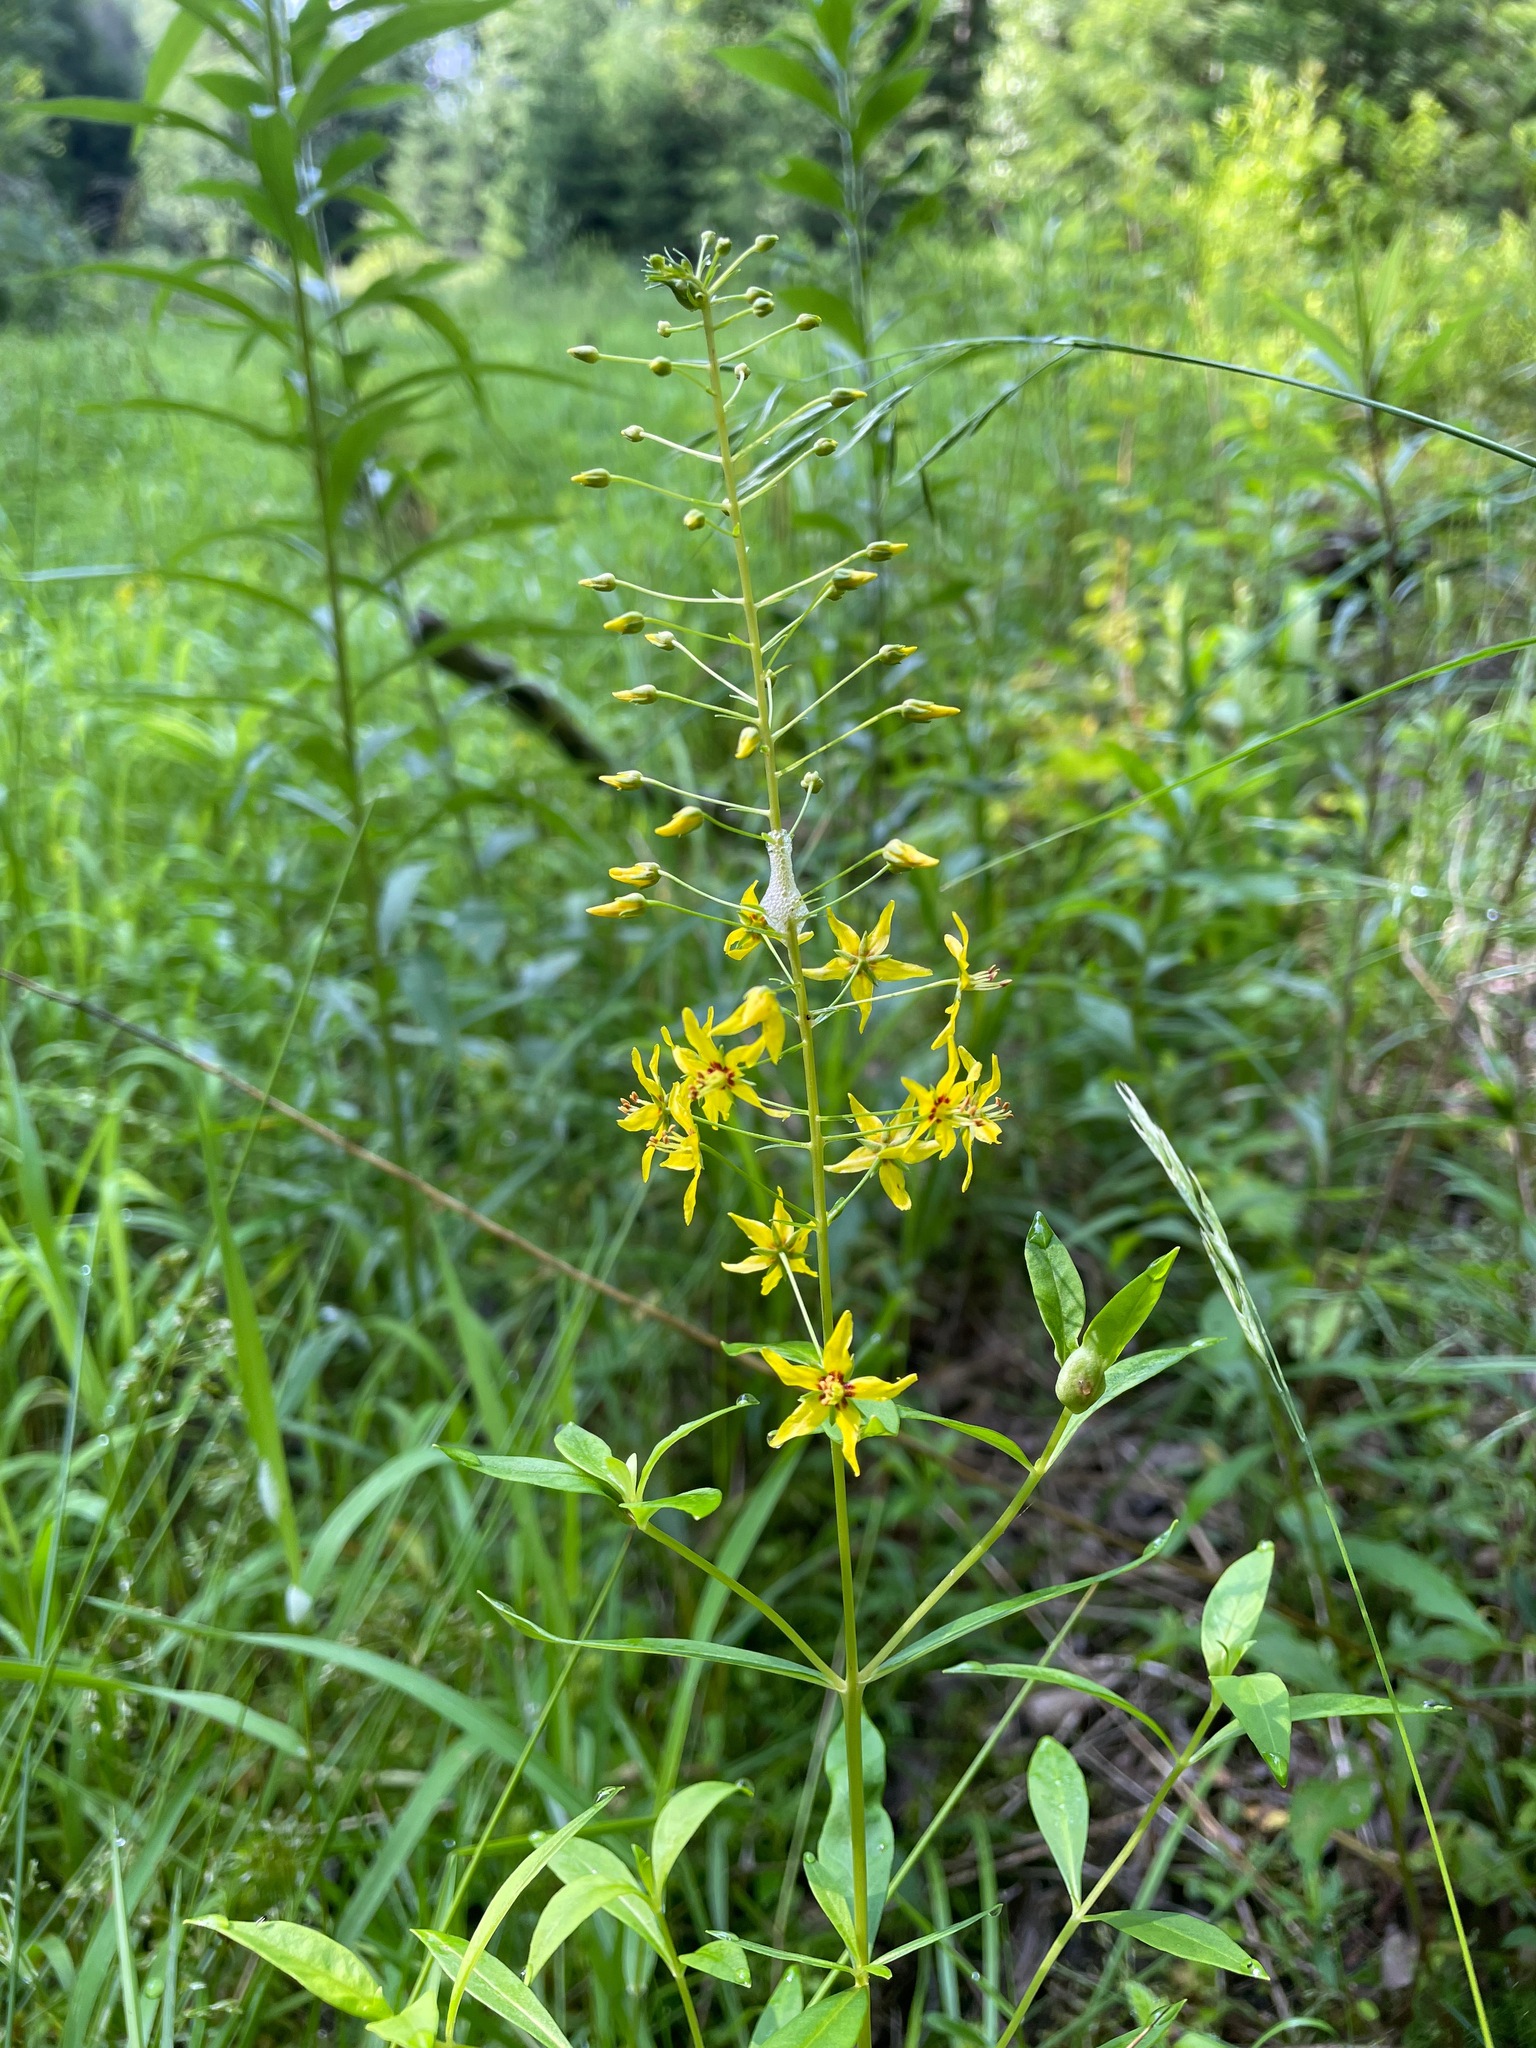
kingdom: Plantae
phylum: Tracheophyta
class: Magnoliopsida
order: Ericales
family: Primulaceae
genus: Lysimachia
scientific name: Lysimachia terrestris
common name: Lake loosestrife
